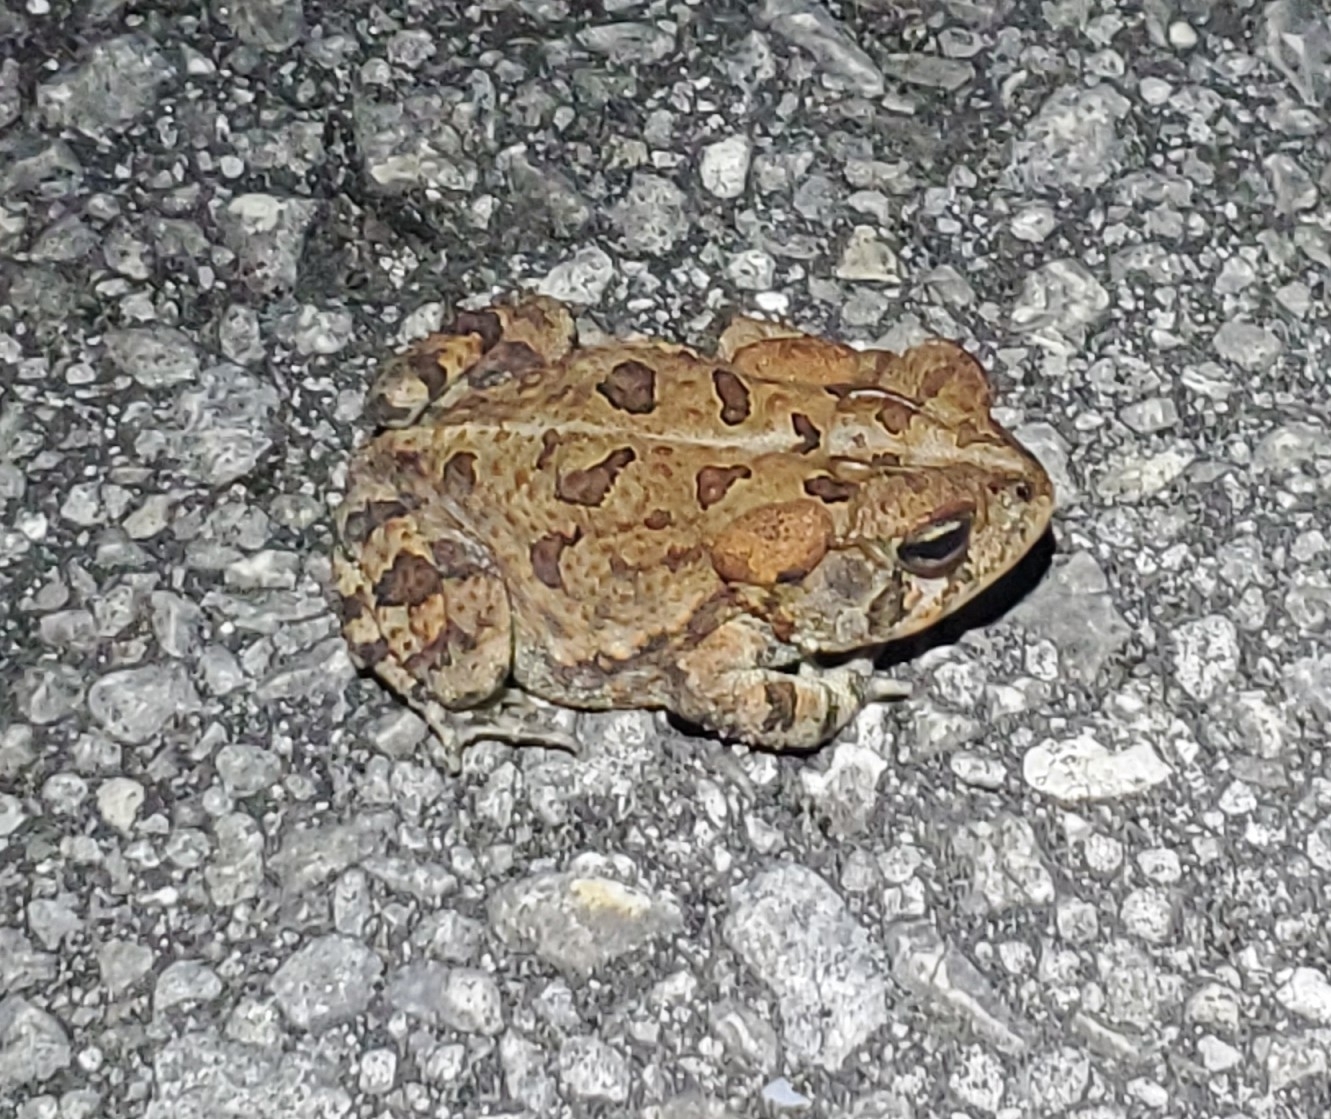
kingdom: Animalia
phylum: Chordata
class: Amphibia
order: Anura
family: Bufonidae
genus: Anaxyrus
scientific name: Anaxyrus terrestris
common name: Southern toad
